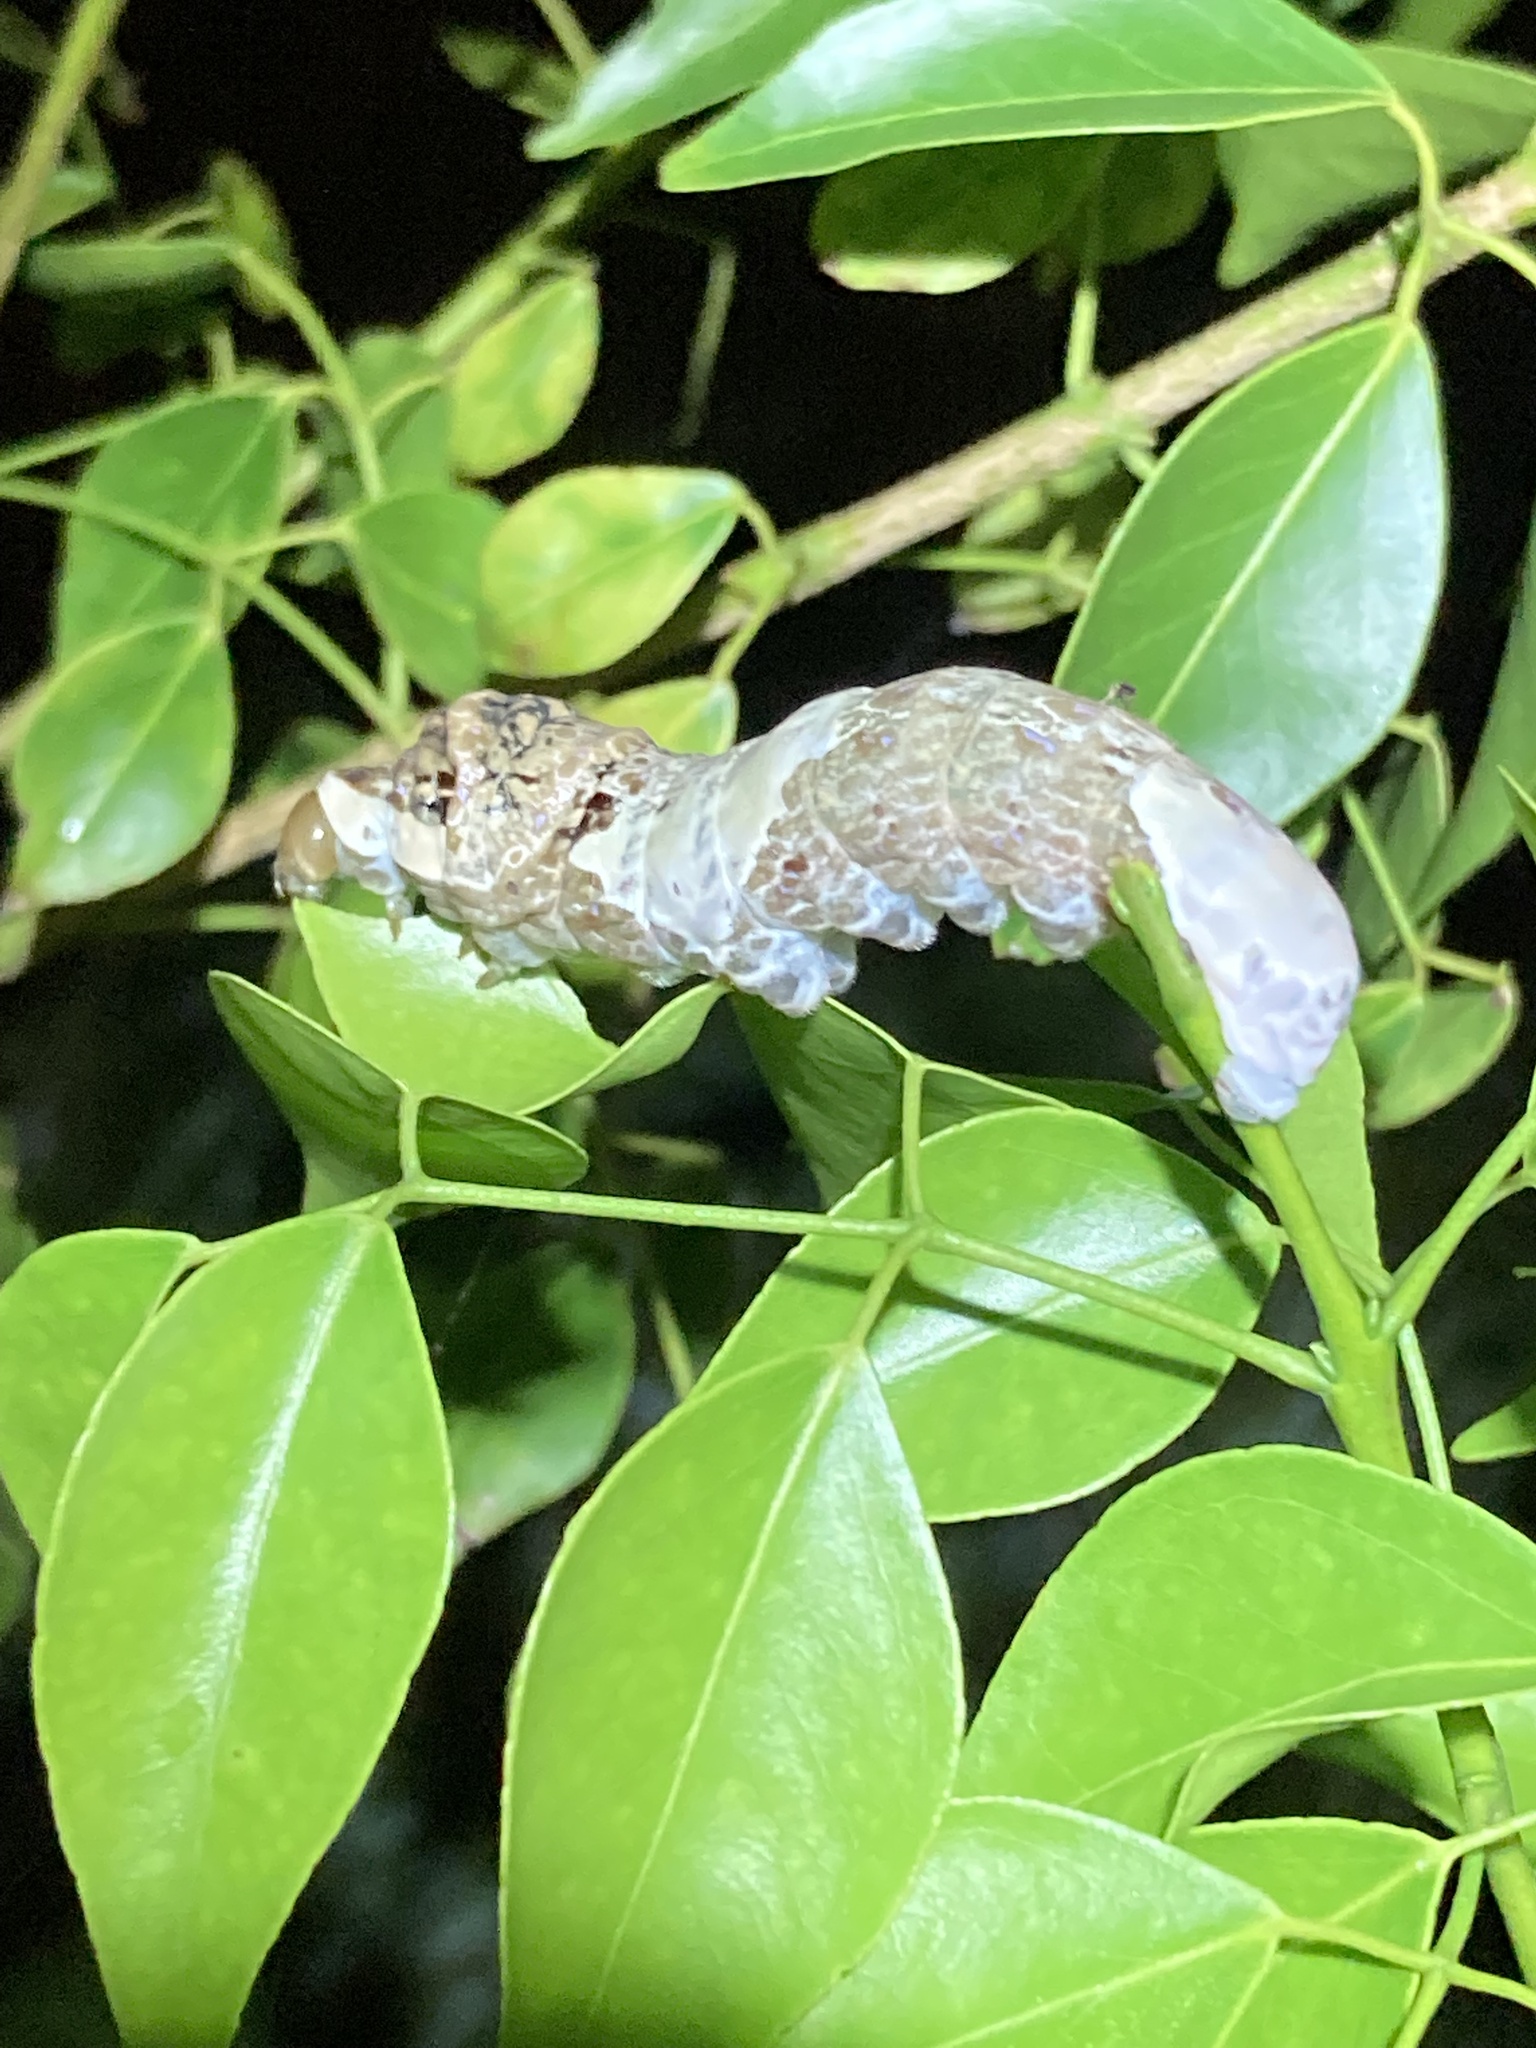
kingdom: Animalia
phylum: Arthropoda
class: Insecta
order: Lepidoptera
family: Papilionidae
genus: Papilio
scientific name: Papilio cresphontes
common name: Giant swallowtail
